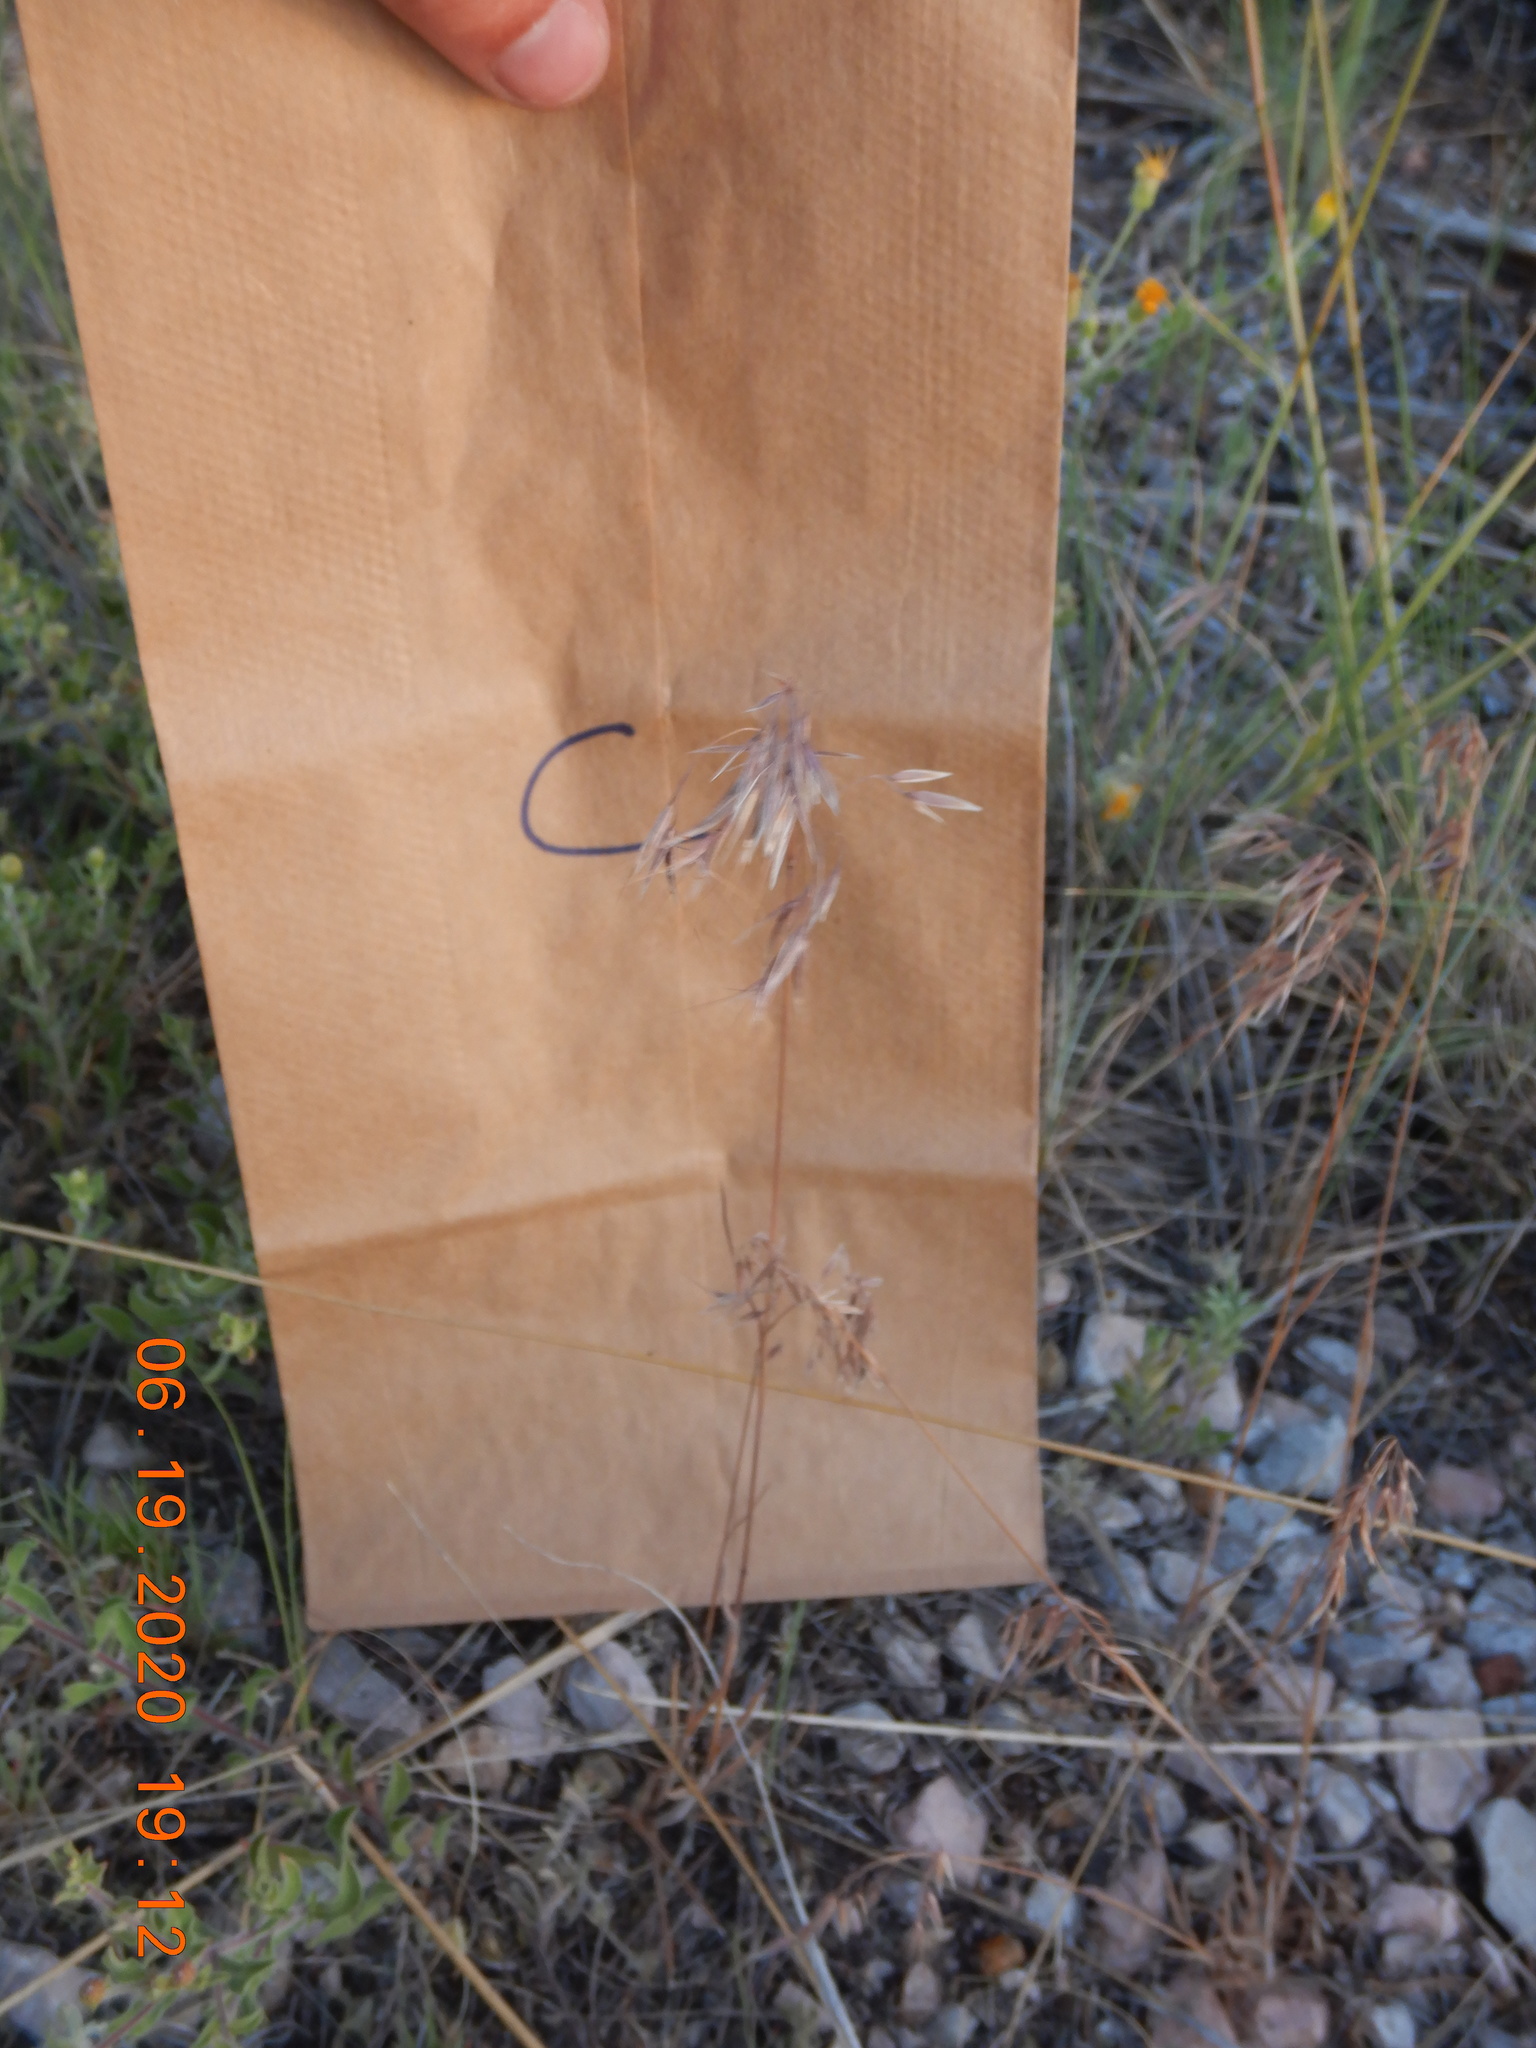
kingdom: Plantae
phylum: Tracheophyta
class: Liliopsida
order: Poales
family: Poaceae
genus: Bromus
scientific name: Bromus tectorum
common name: Cheatgrass
